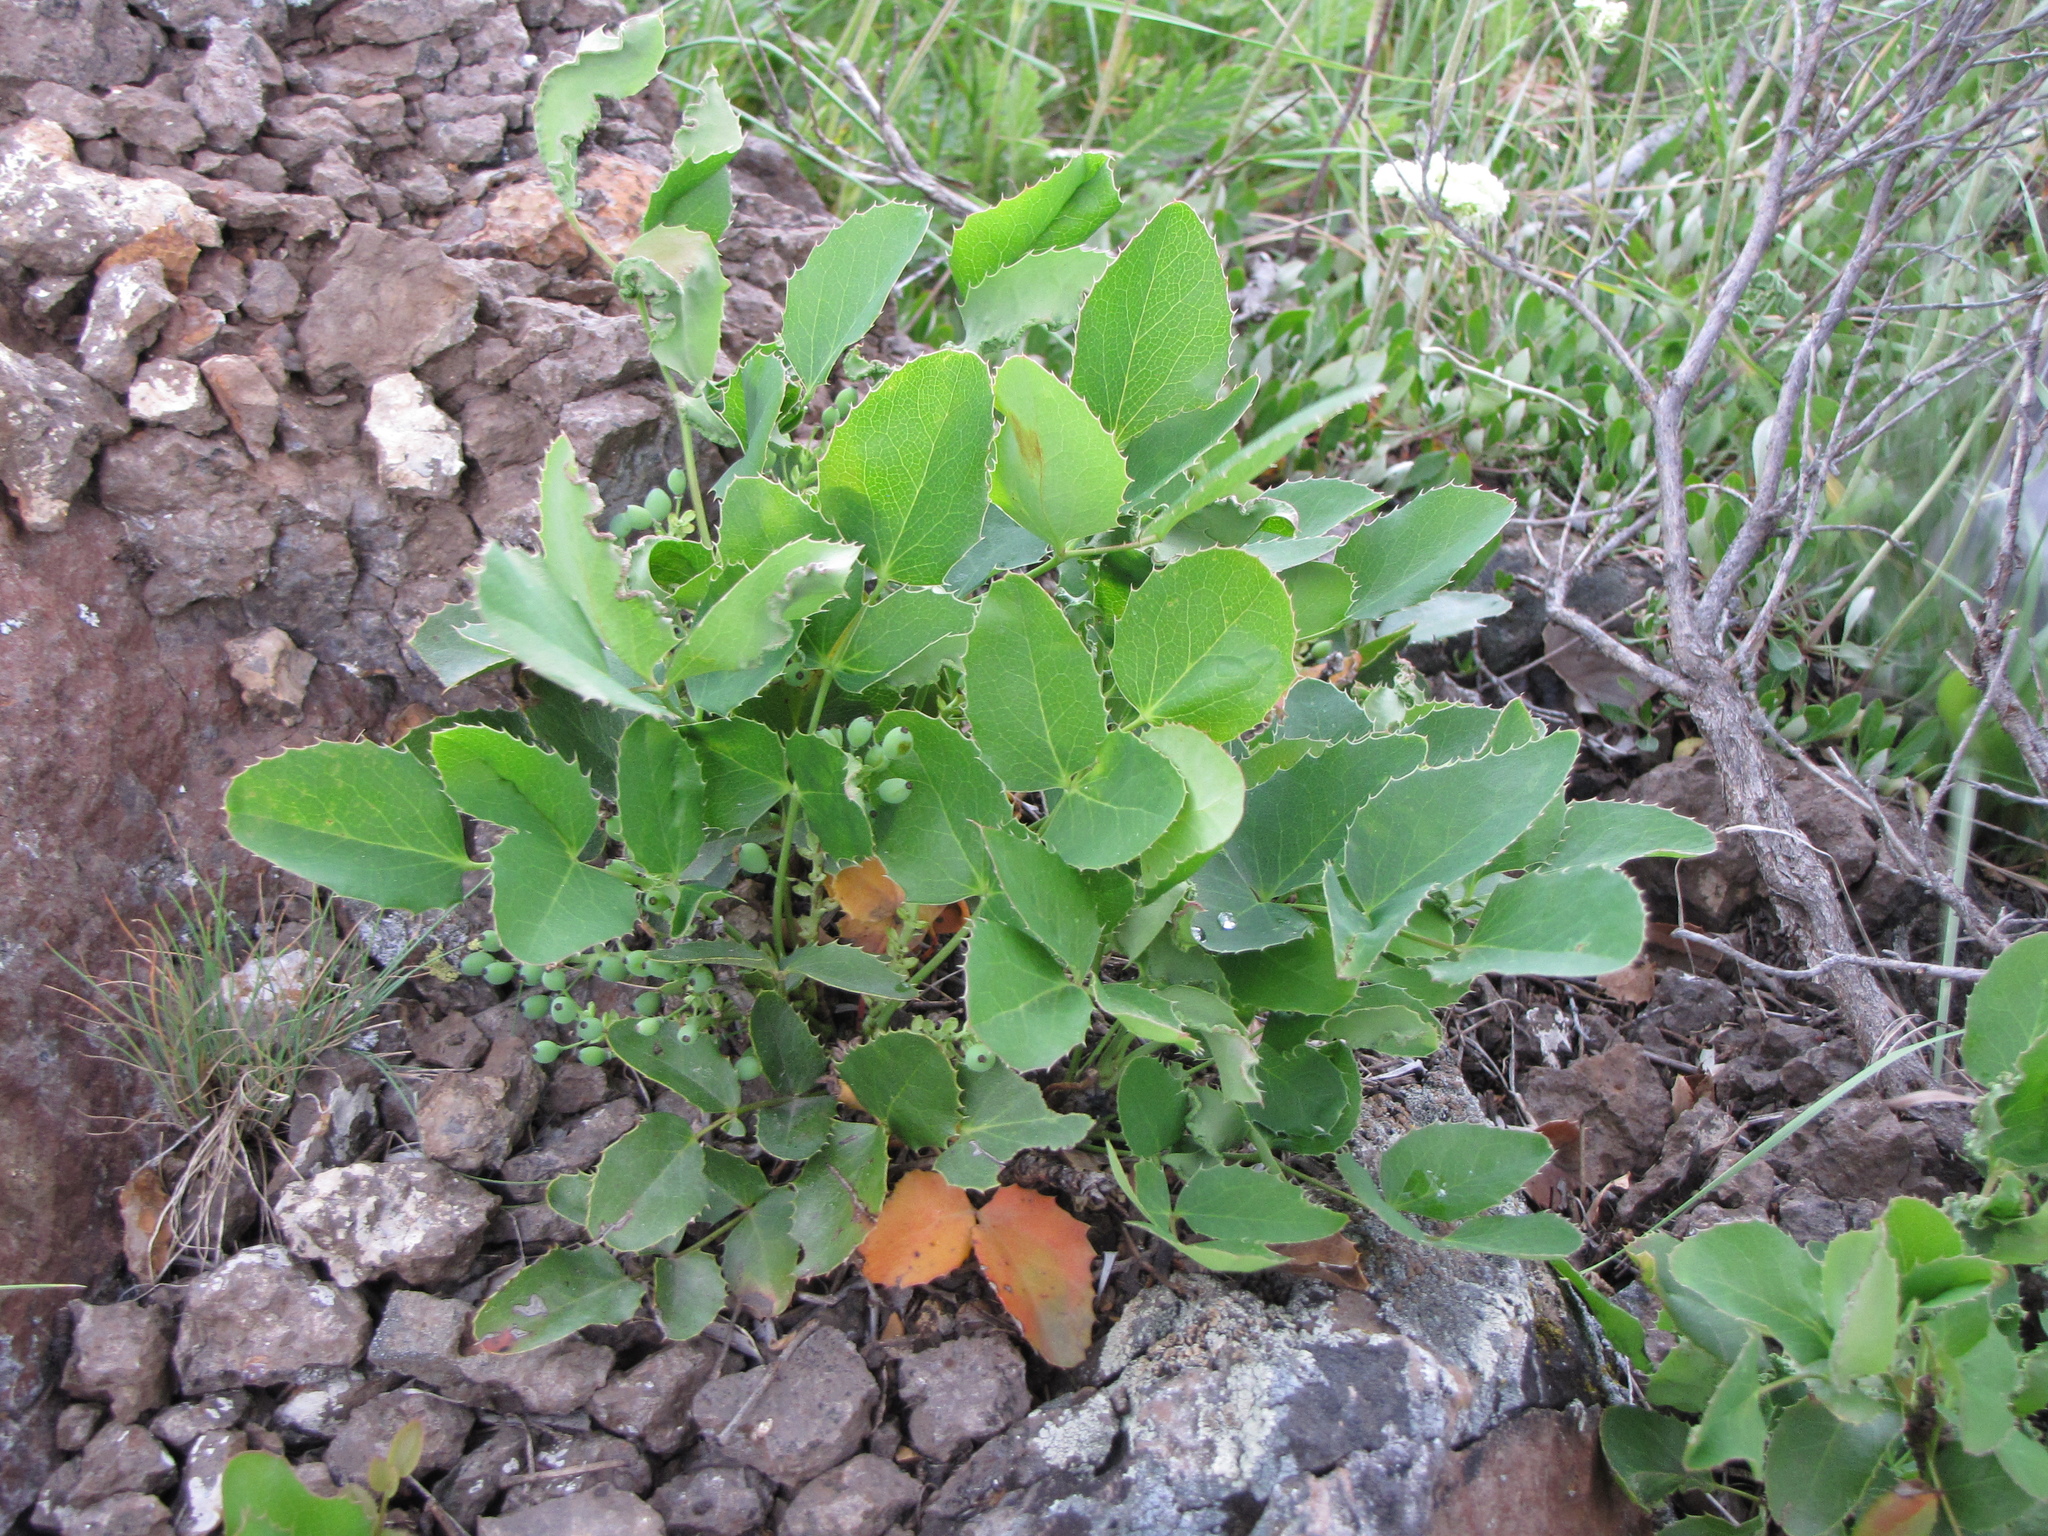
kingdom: Plantae
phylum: Tracheophyta
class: Magnoliopsida
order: Ranunculales
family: Berberidaceae
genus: Mahonia
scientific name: Mahonia repens
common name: Creeping oregon-grape
